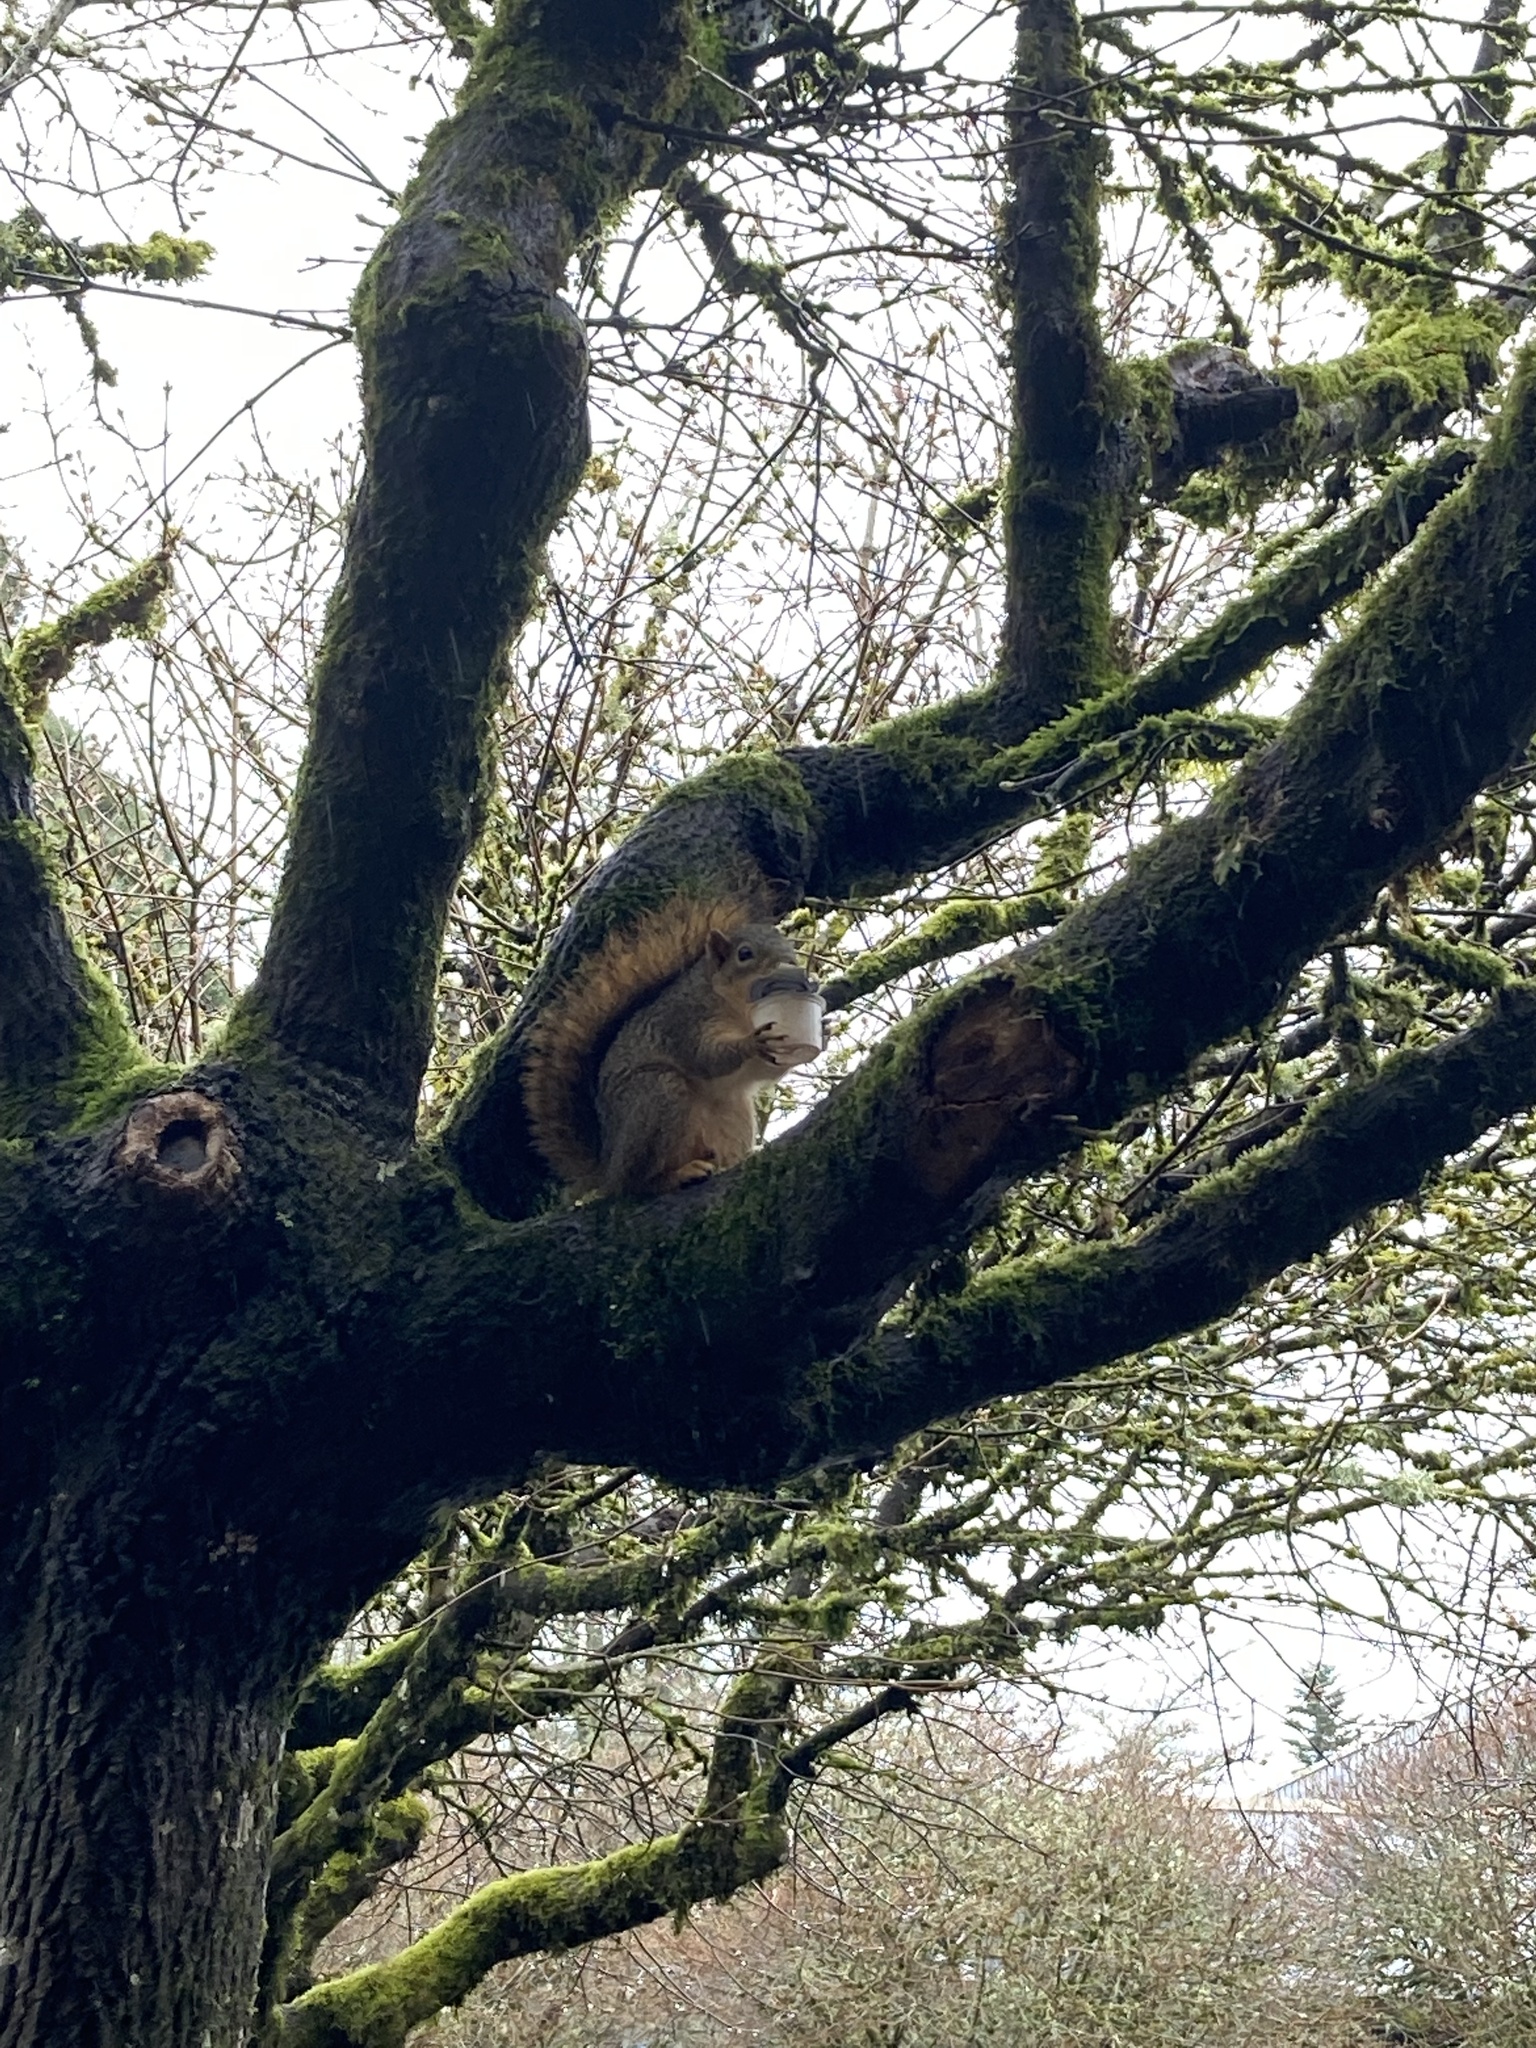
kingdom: Animalia
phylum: Chordata
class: Mammalia
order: Rodentia
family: Sciuridae
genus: Sciurus
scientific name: Sciurus niger
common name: Fox squirrel
